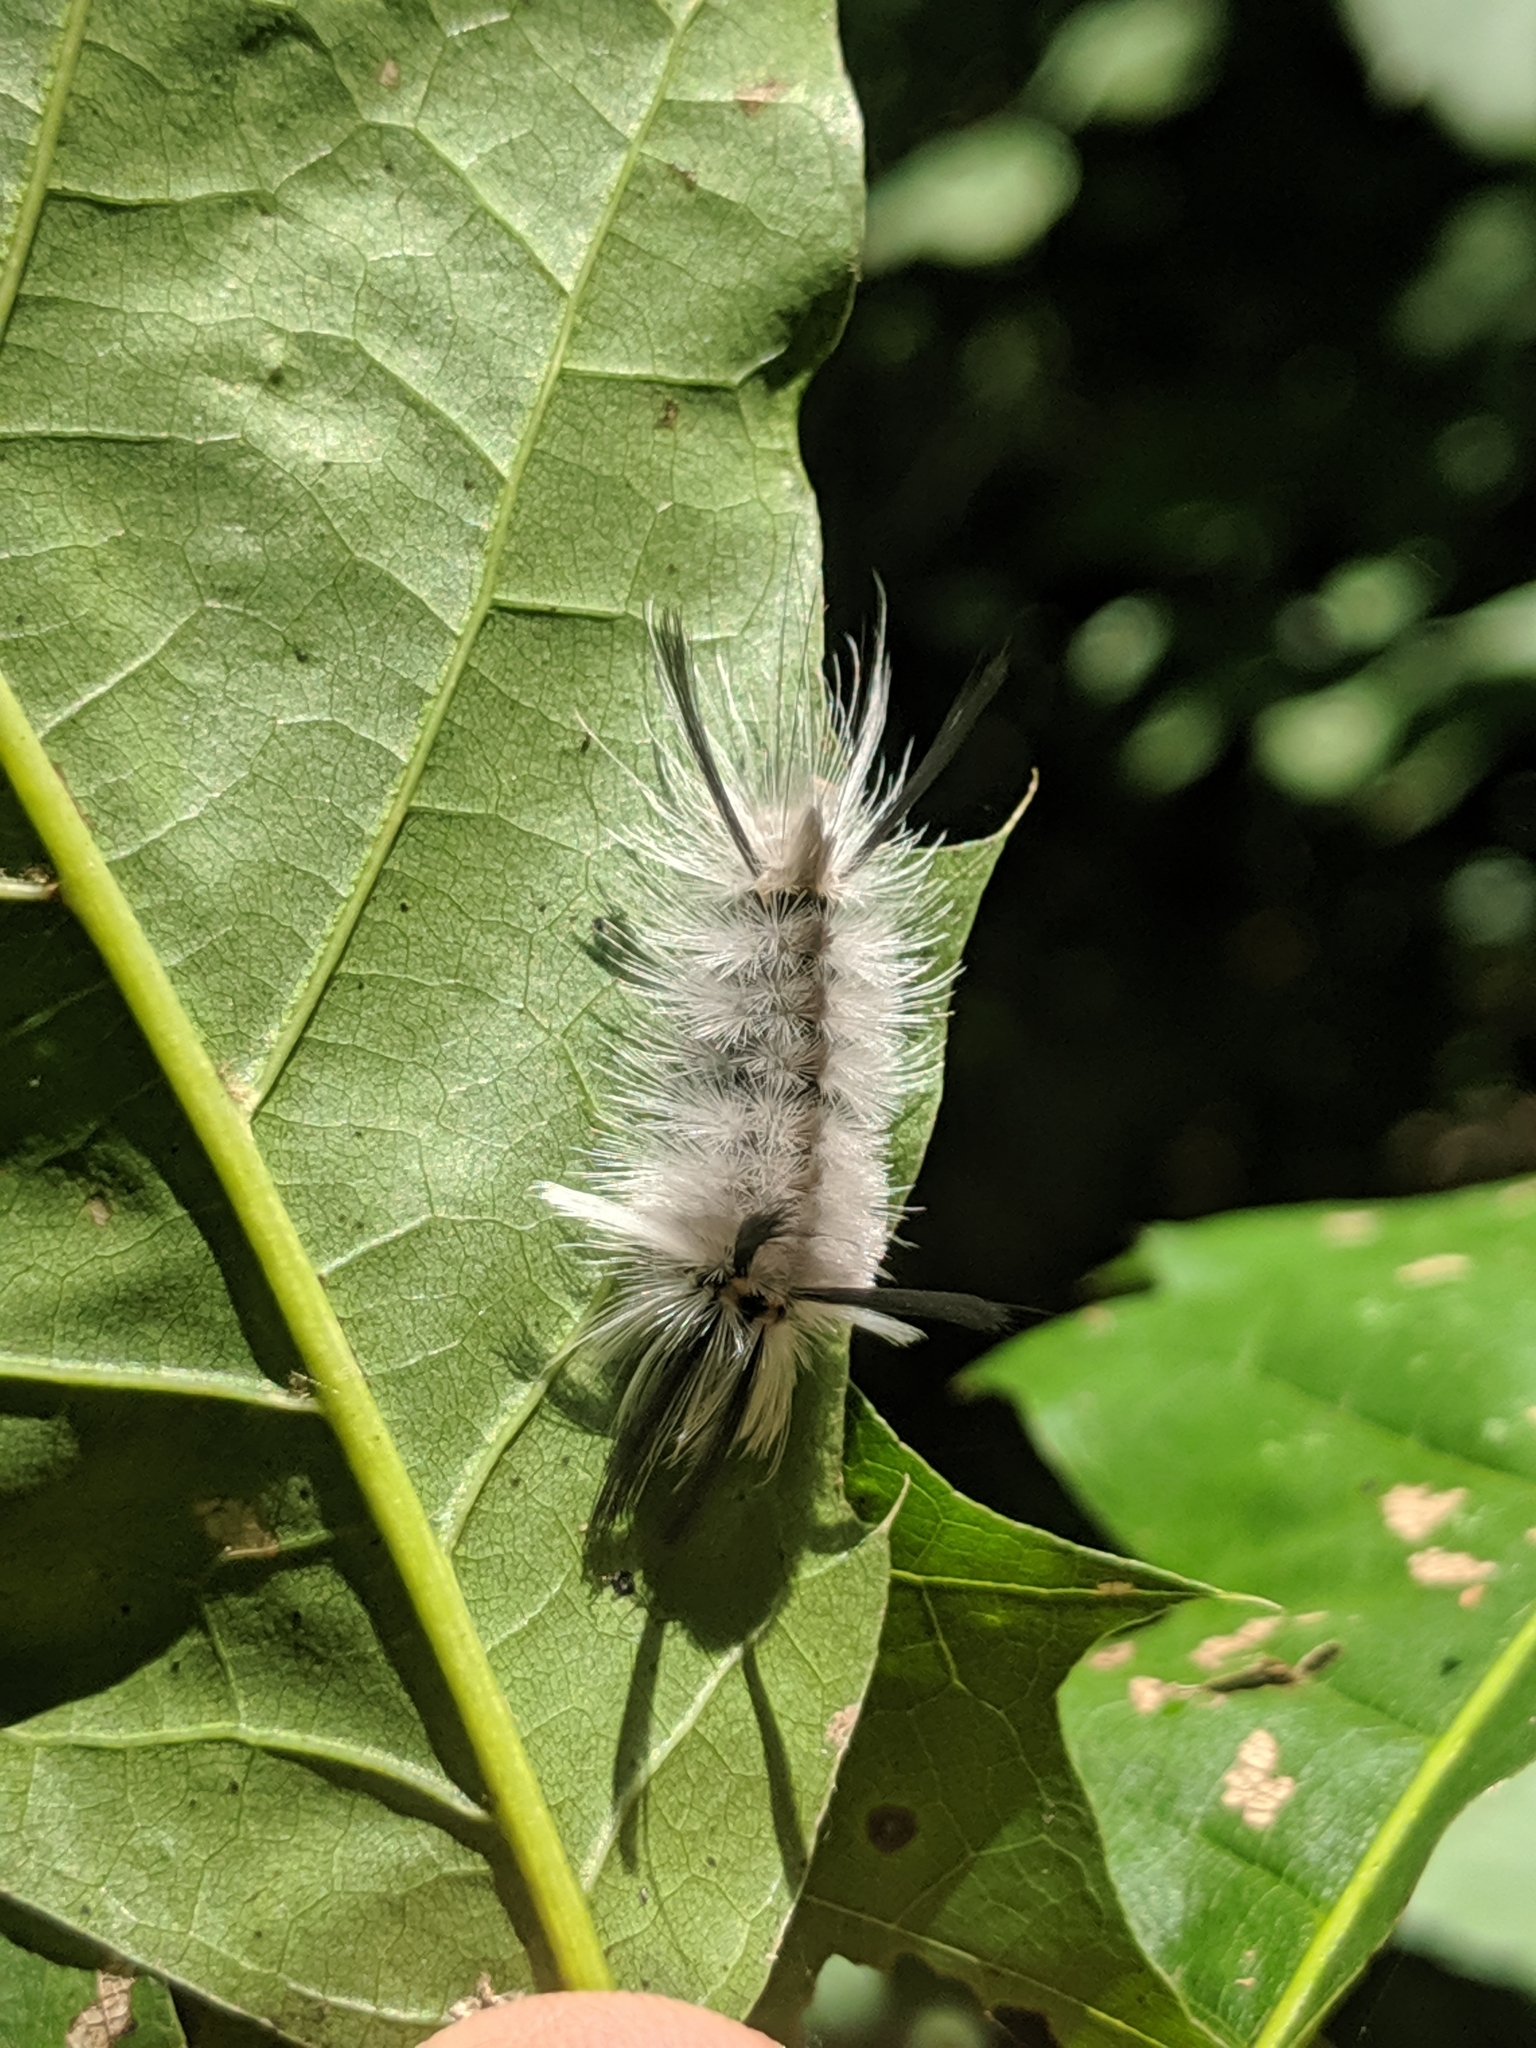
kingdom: Animalia
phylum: Arthropoda
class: Insecta
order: Lepidoptera
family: Erebidae
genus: Halysidota
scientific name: Halysidota tessellaris
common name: Banded tussock moth
